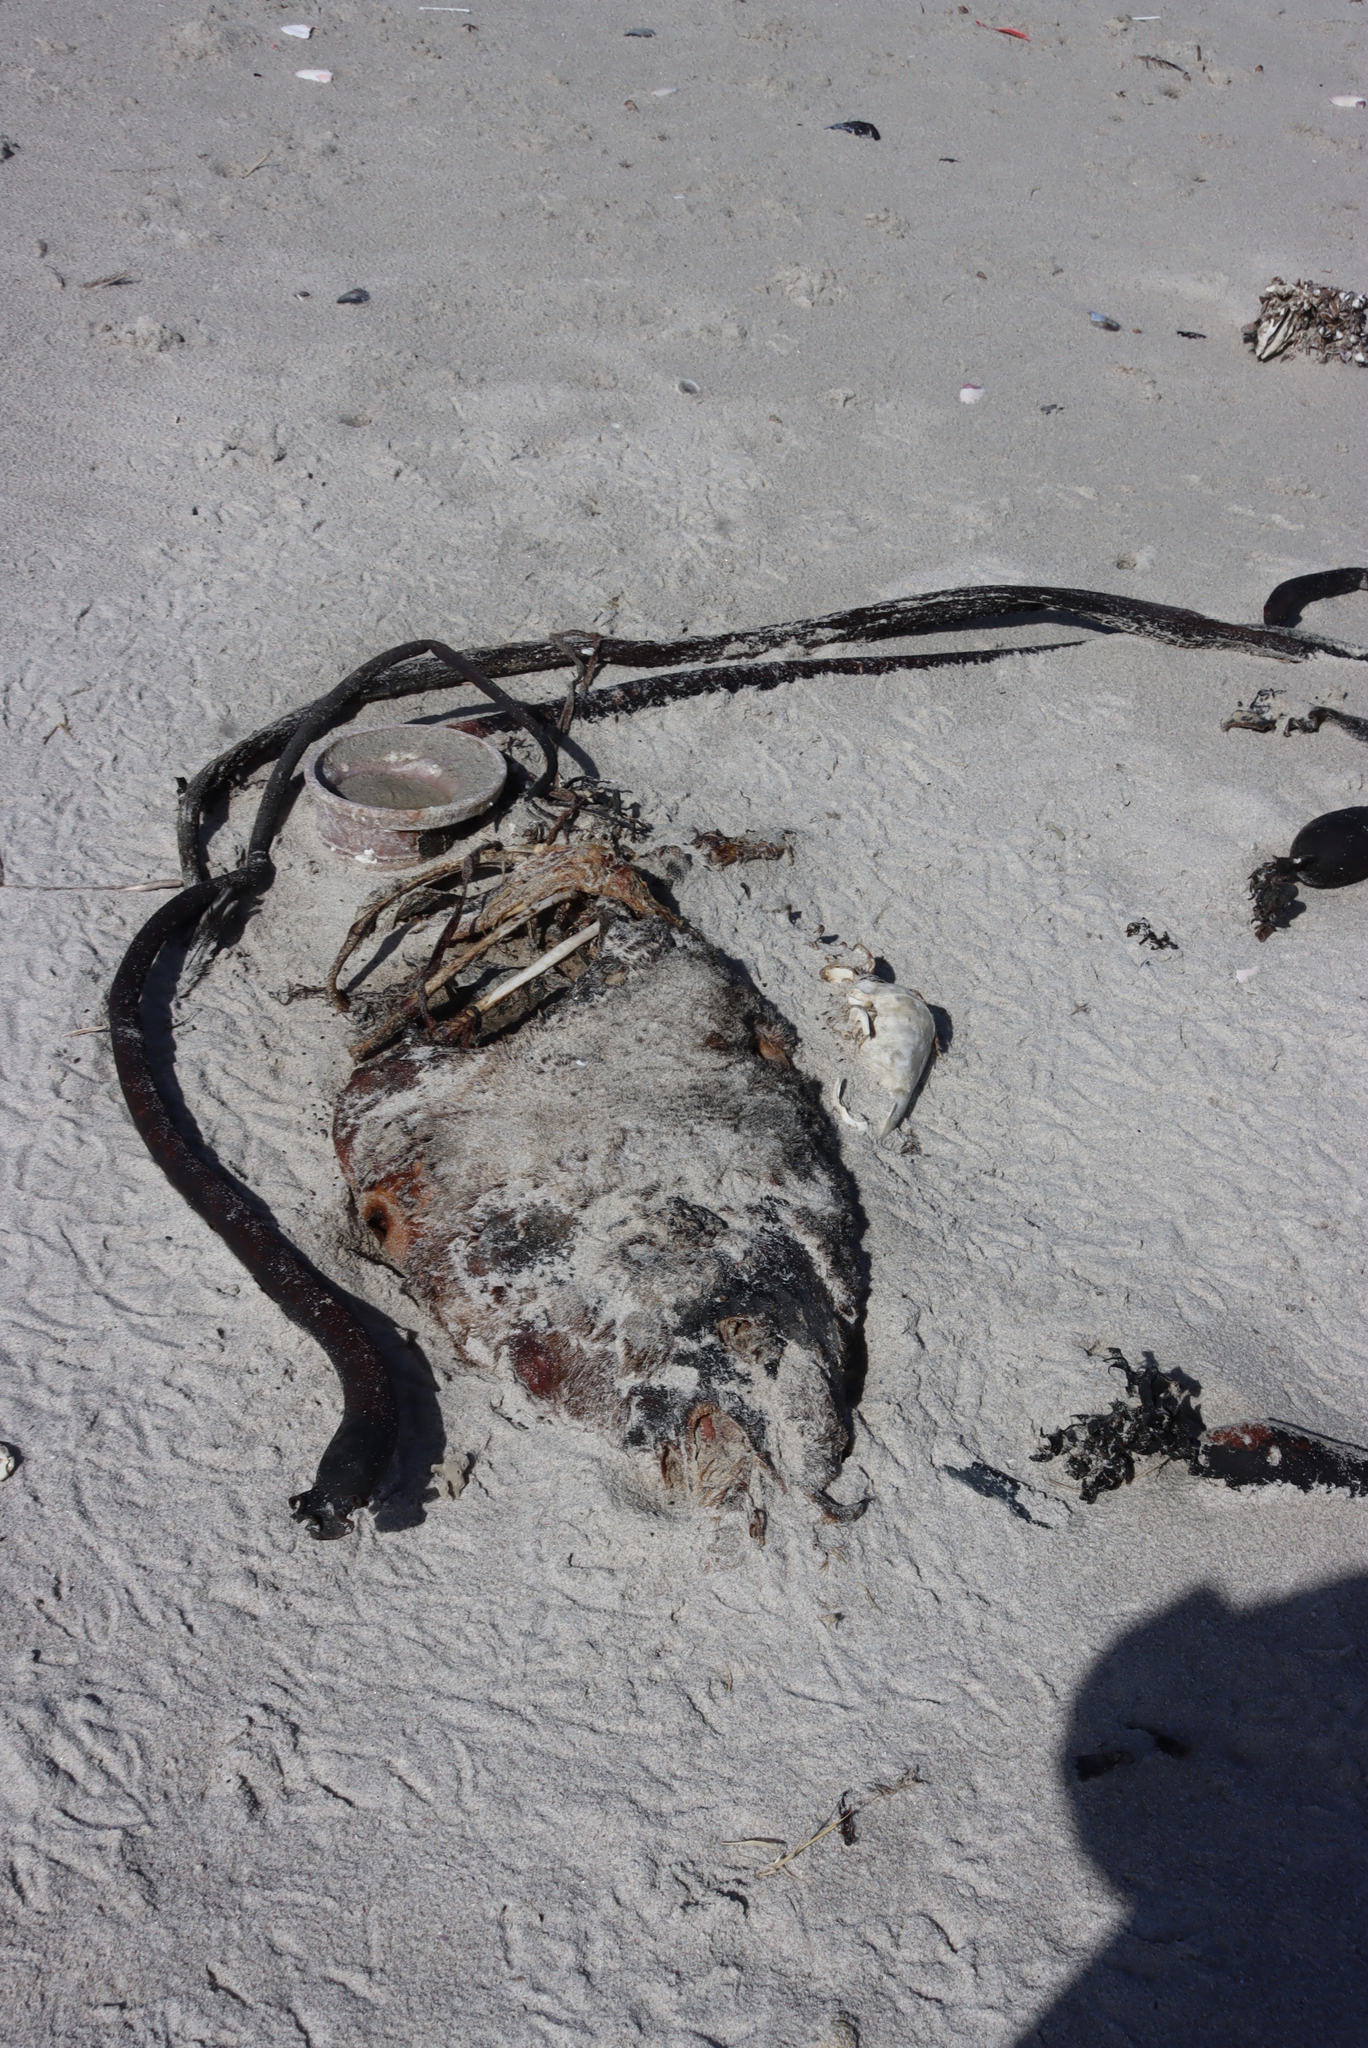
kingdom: Animalia
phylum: Chordata
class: Mammalia
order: Carnivora
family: Otariidae
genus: Arctocephalus
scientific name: Arctocephalus pusillus
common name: Brown fur seal
